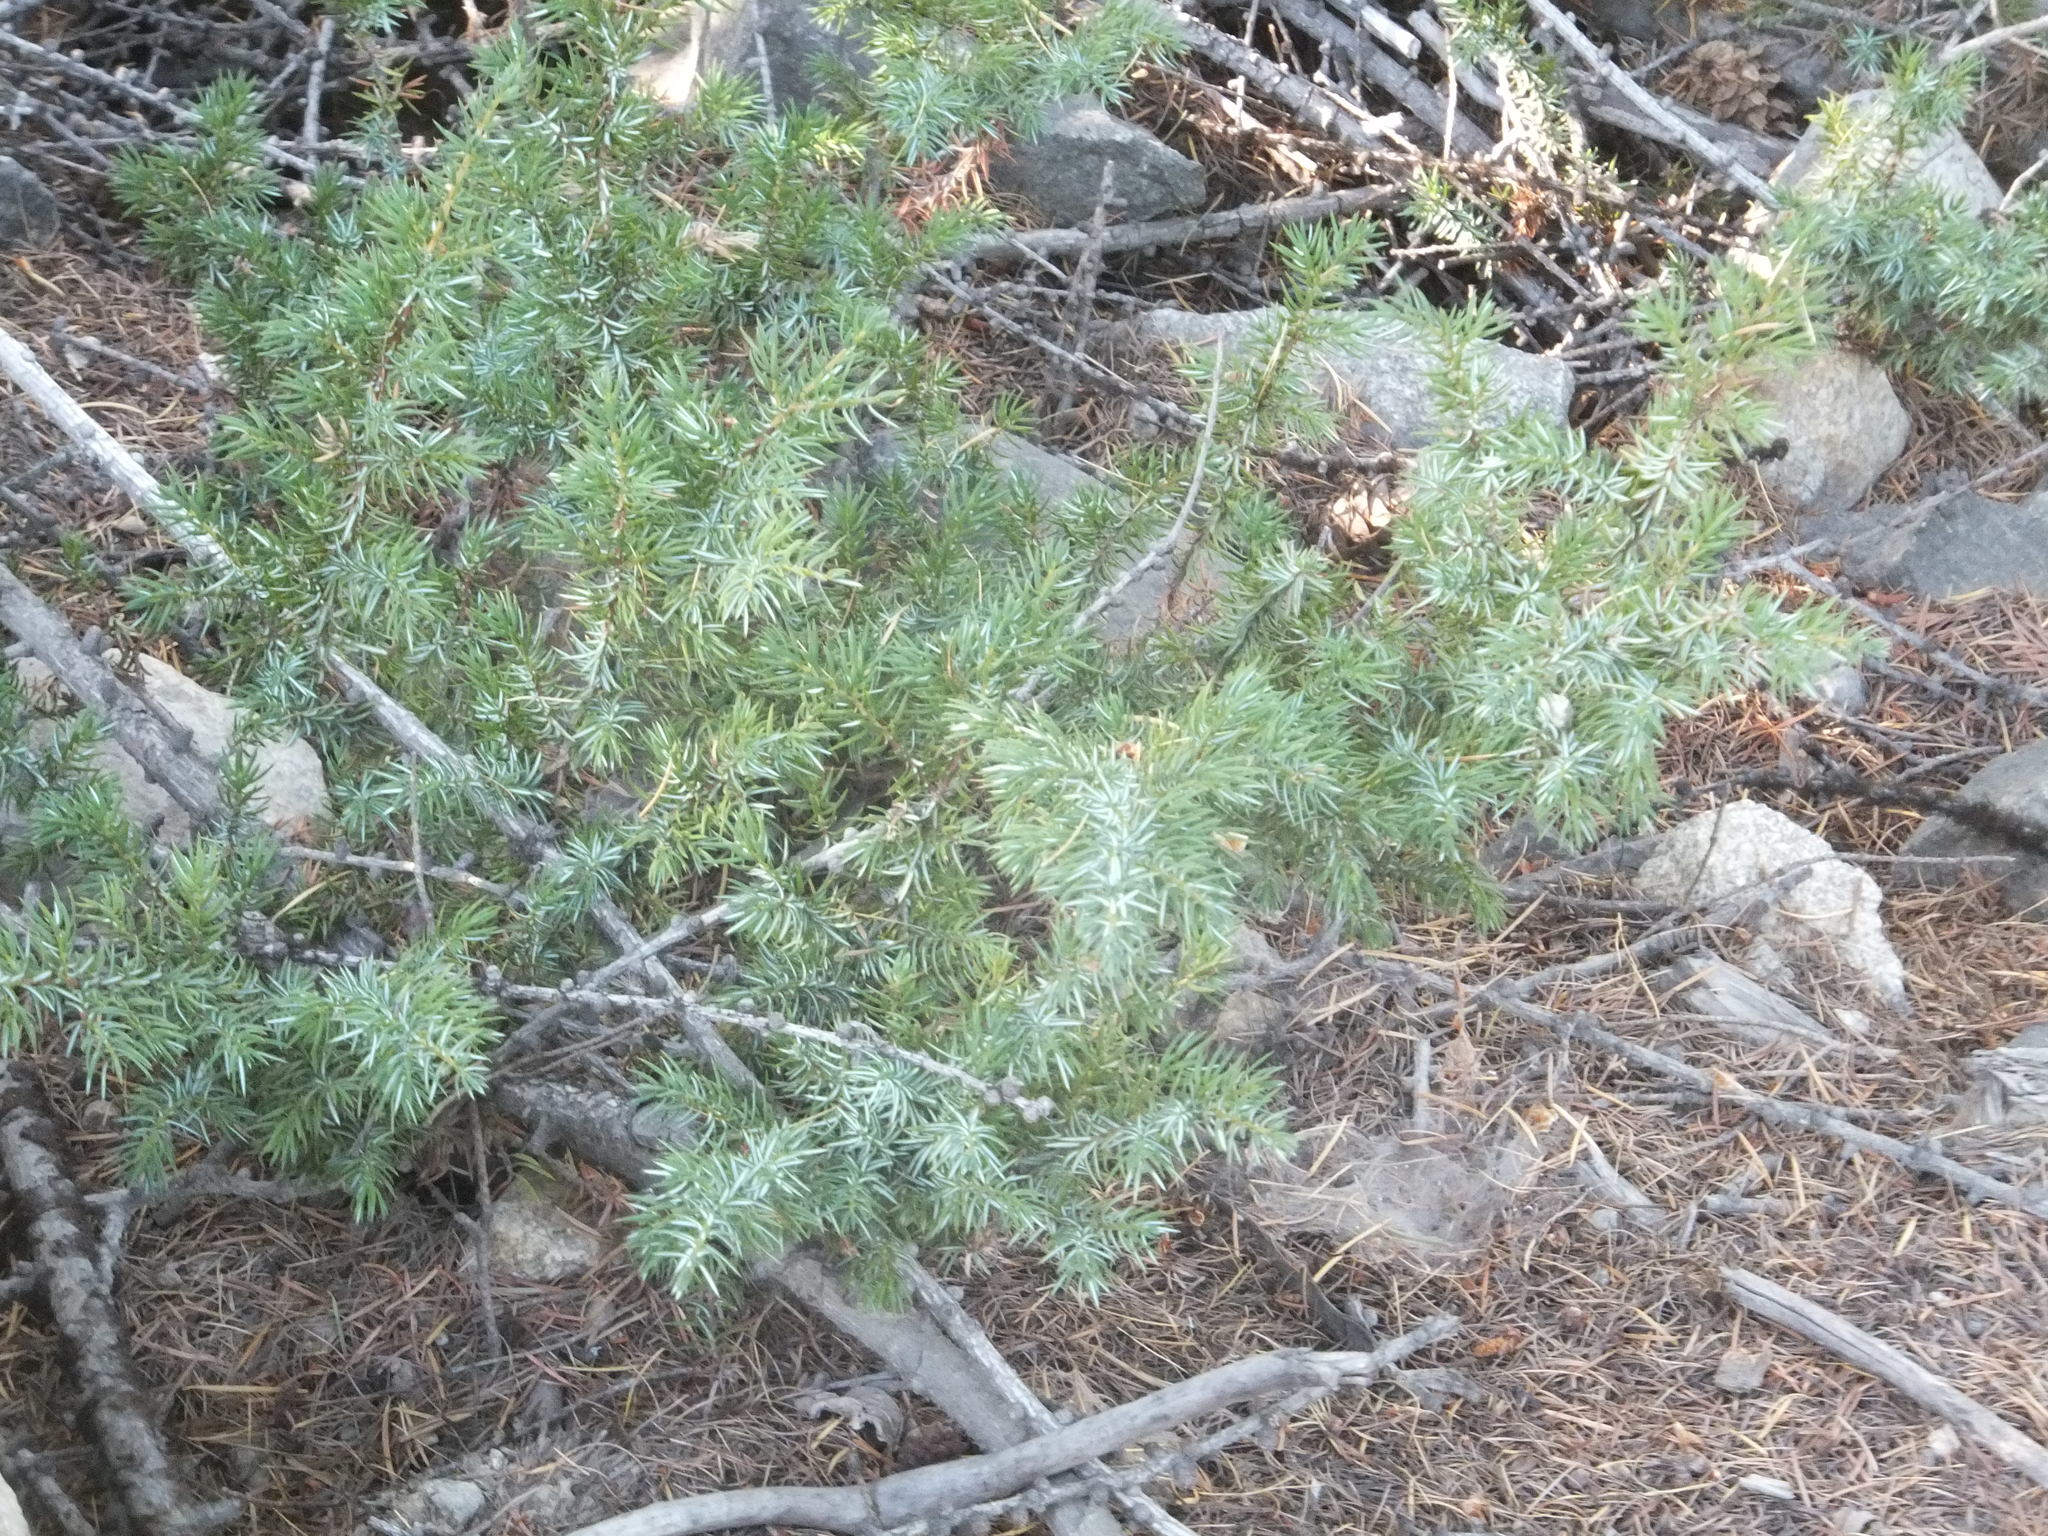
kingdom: Plantae
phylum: Tracheophyta
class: Pinopsida
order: Pinales
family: Cupressaceae
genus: Juniperus
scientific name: Juniperus communis
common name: Common juniper
